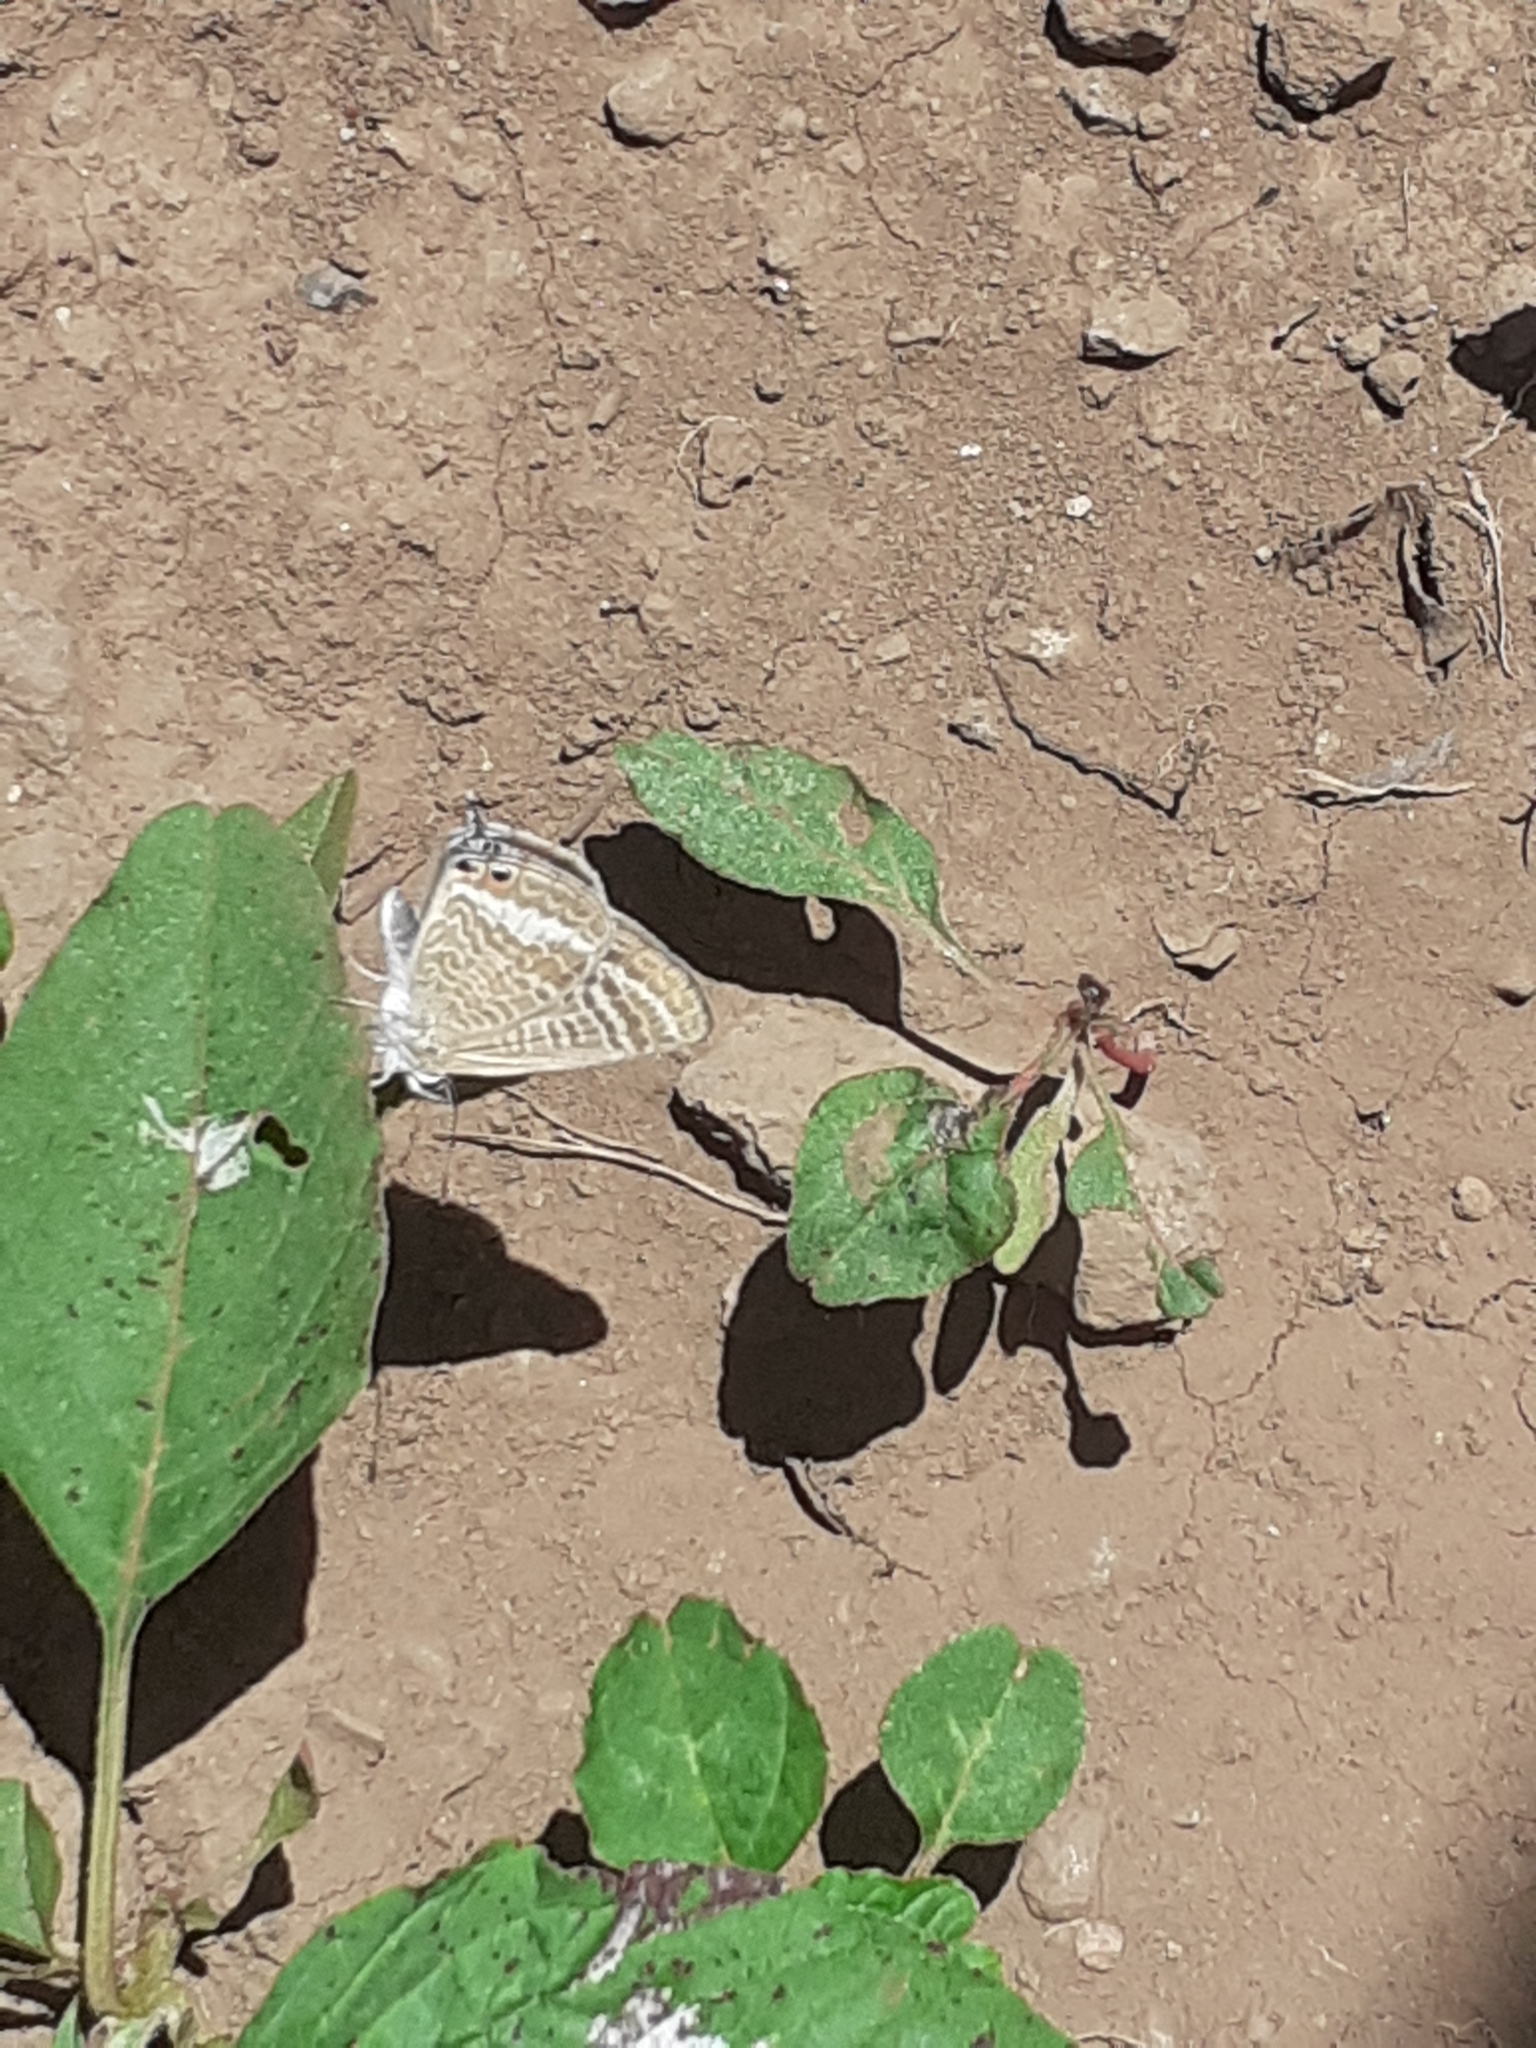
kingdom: Animalia
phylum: Arthropoda
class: Insecta
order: Lepidoptera
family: Lycaenidae
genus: Lampides
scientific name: Lampides boeticus
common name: Long-tailed blue
